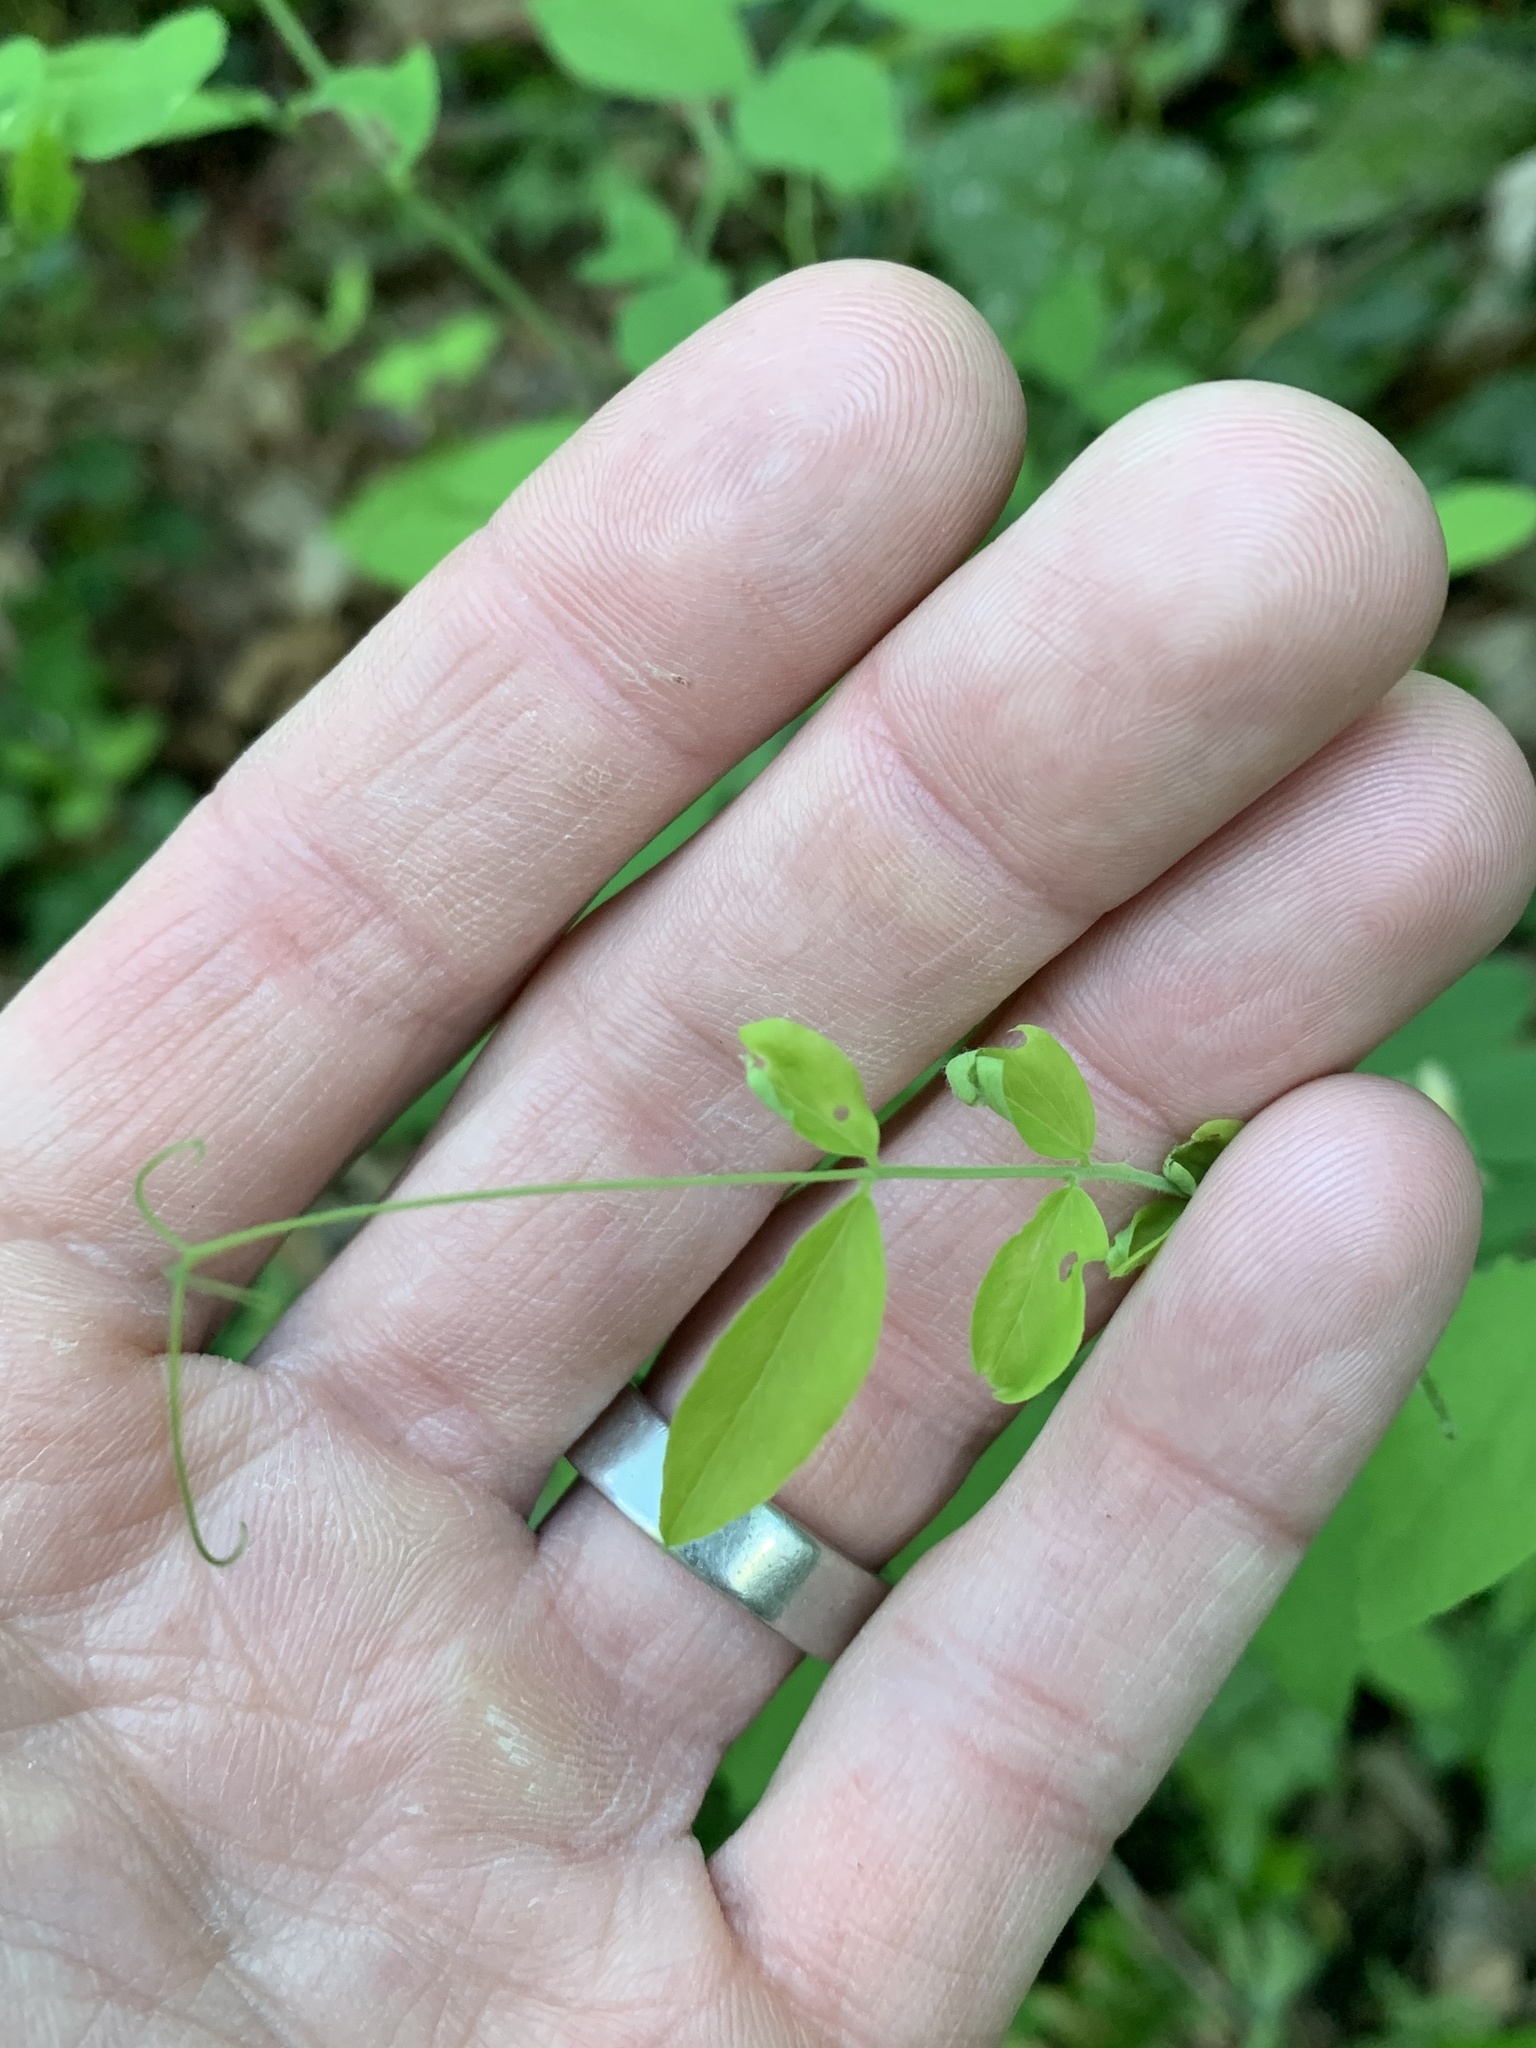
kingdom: Plantae
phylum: Tracheophyta
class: Magnoliopsida
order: Fabales
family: Fabaceae
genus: Lathyrus
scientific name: Lathyrus nevadensis
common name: Sierra nevada peavine
